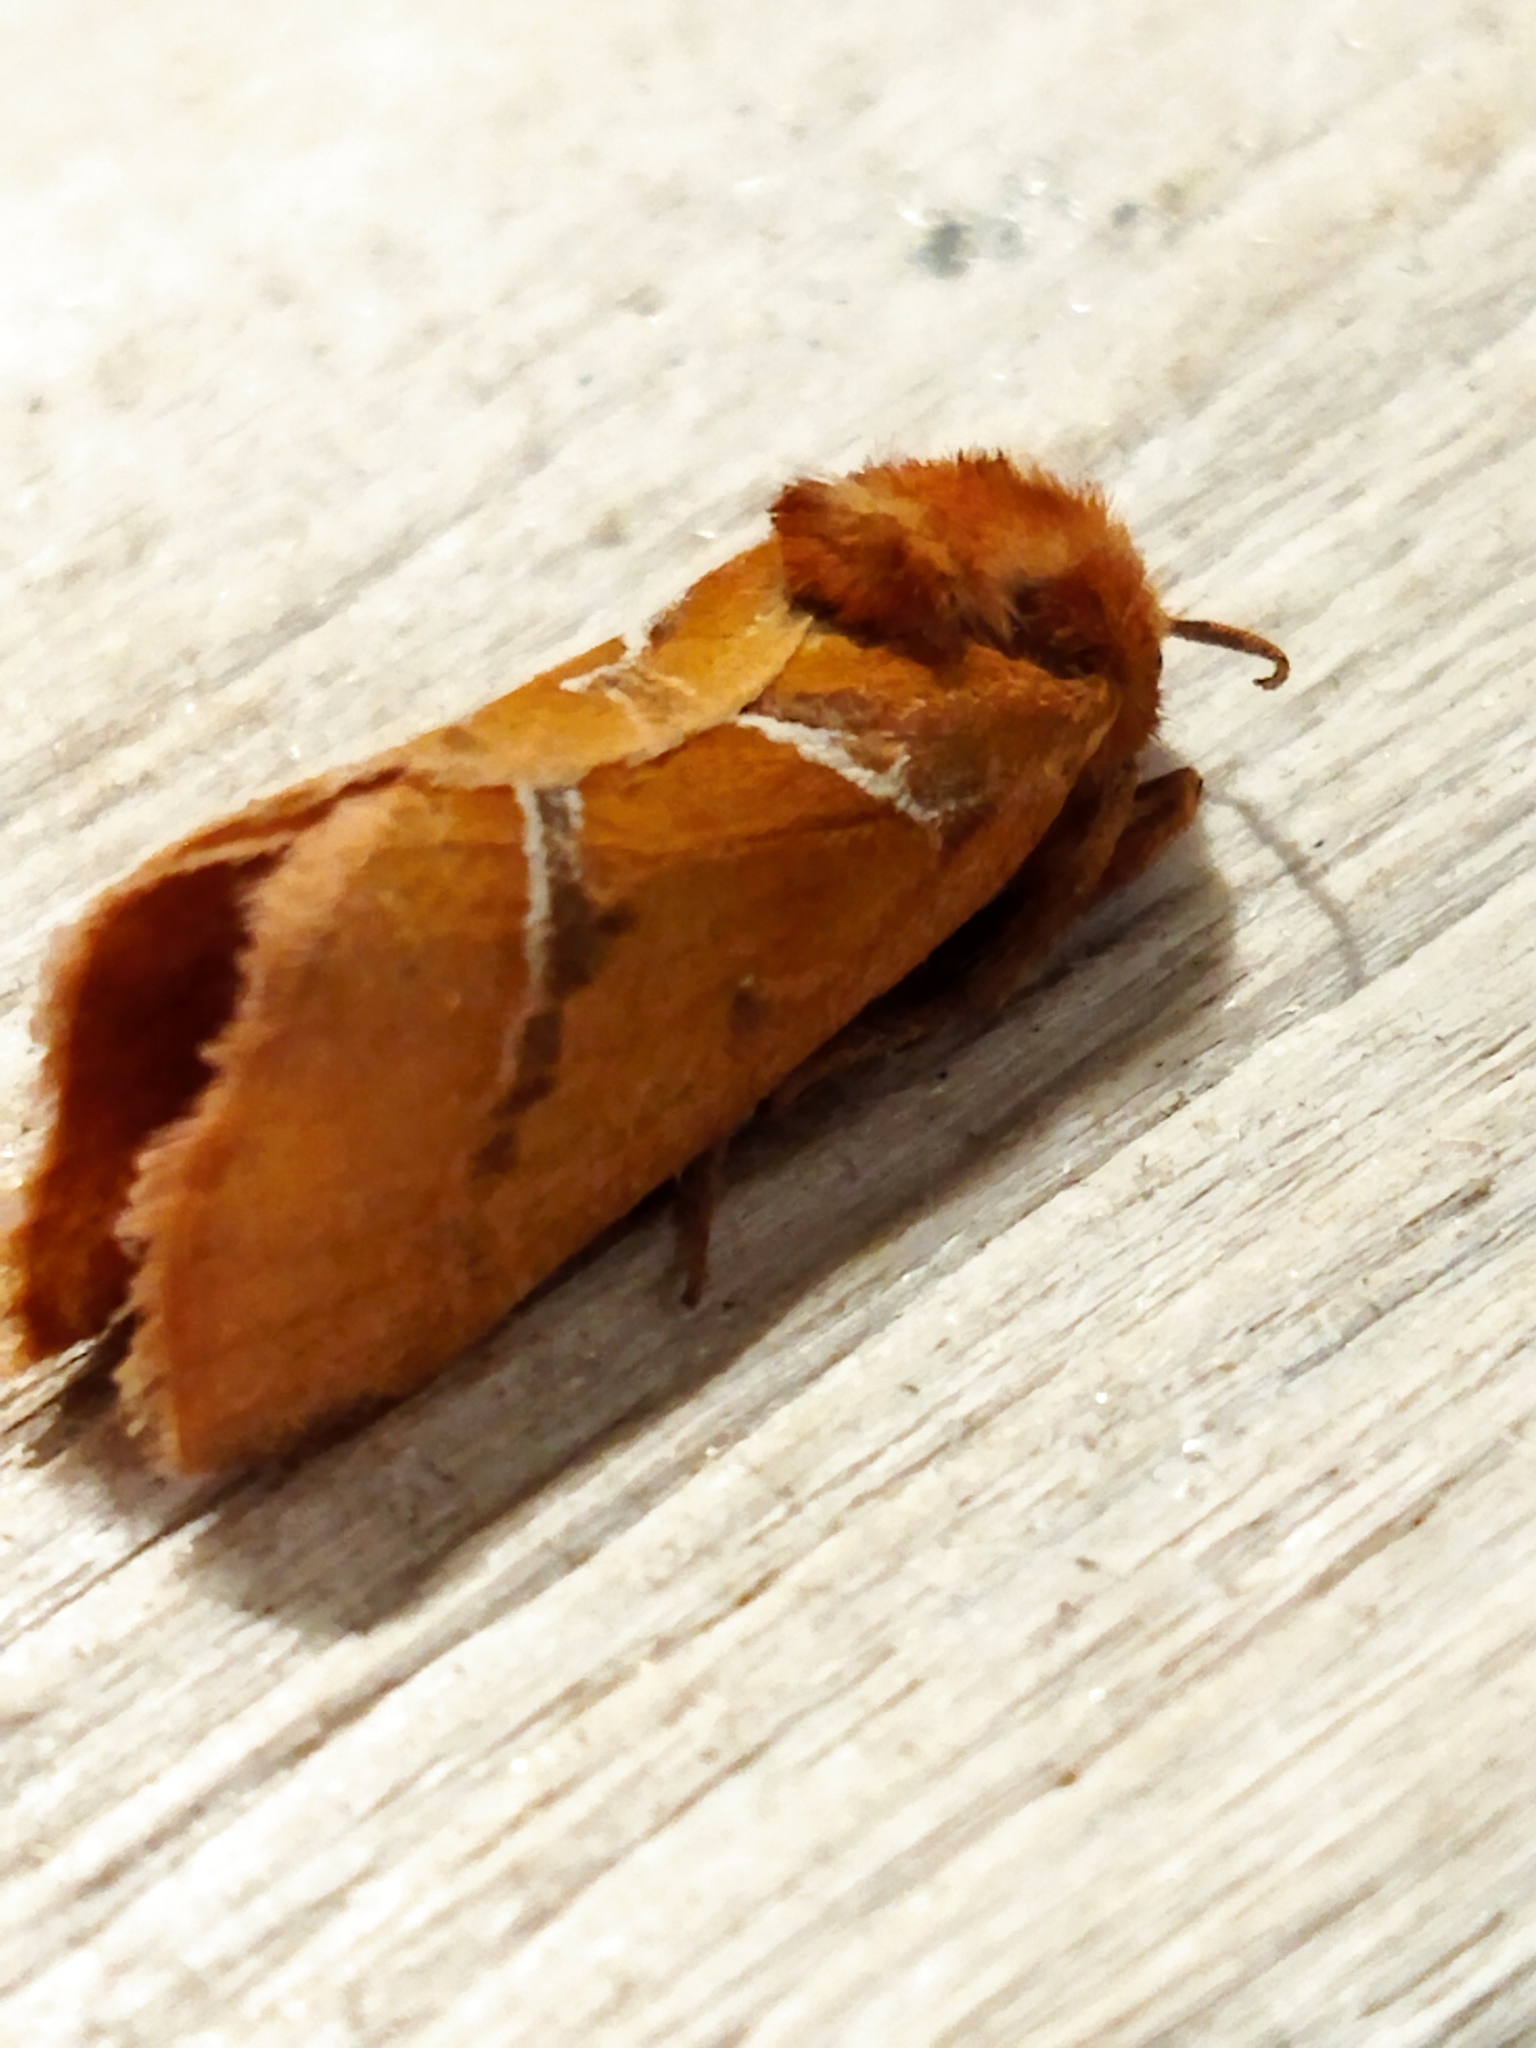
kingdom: Animalia
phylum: Arthropoda
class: Insecta
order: Lepidoptera
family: Hepialidae
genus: Triodia
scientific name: Triodia sylvina
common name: Orange swift
